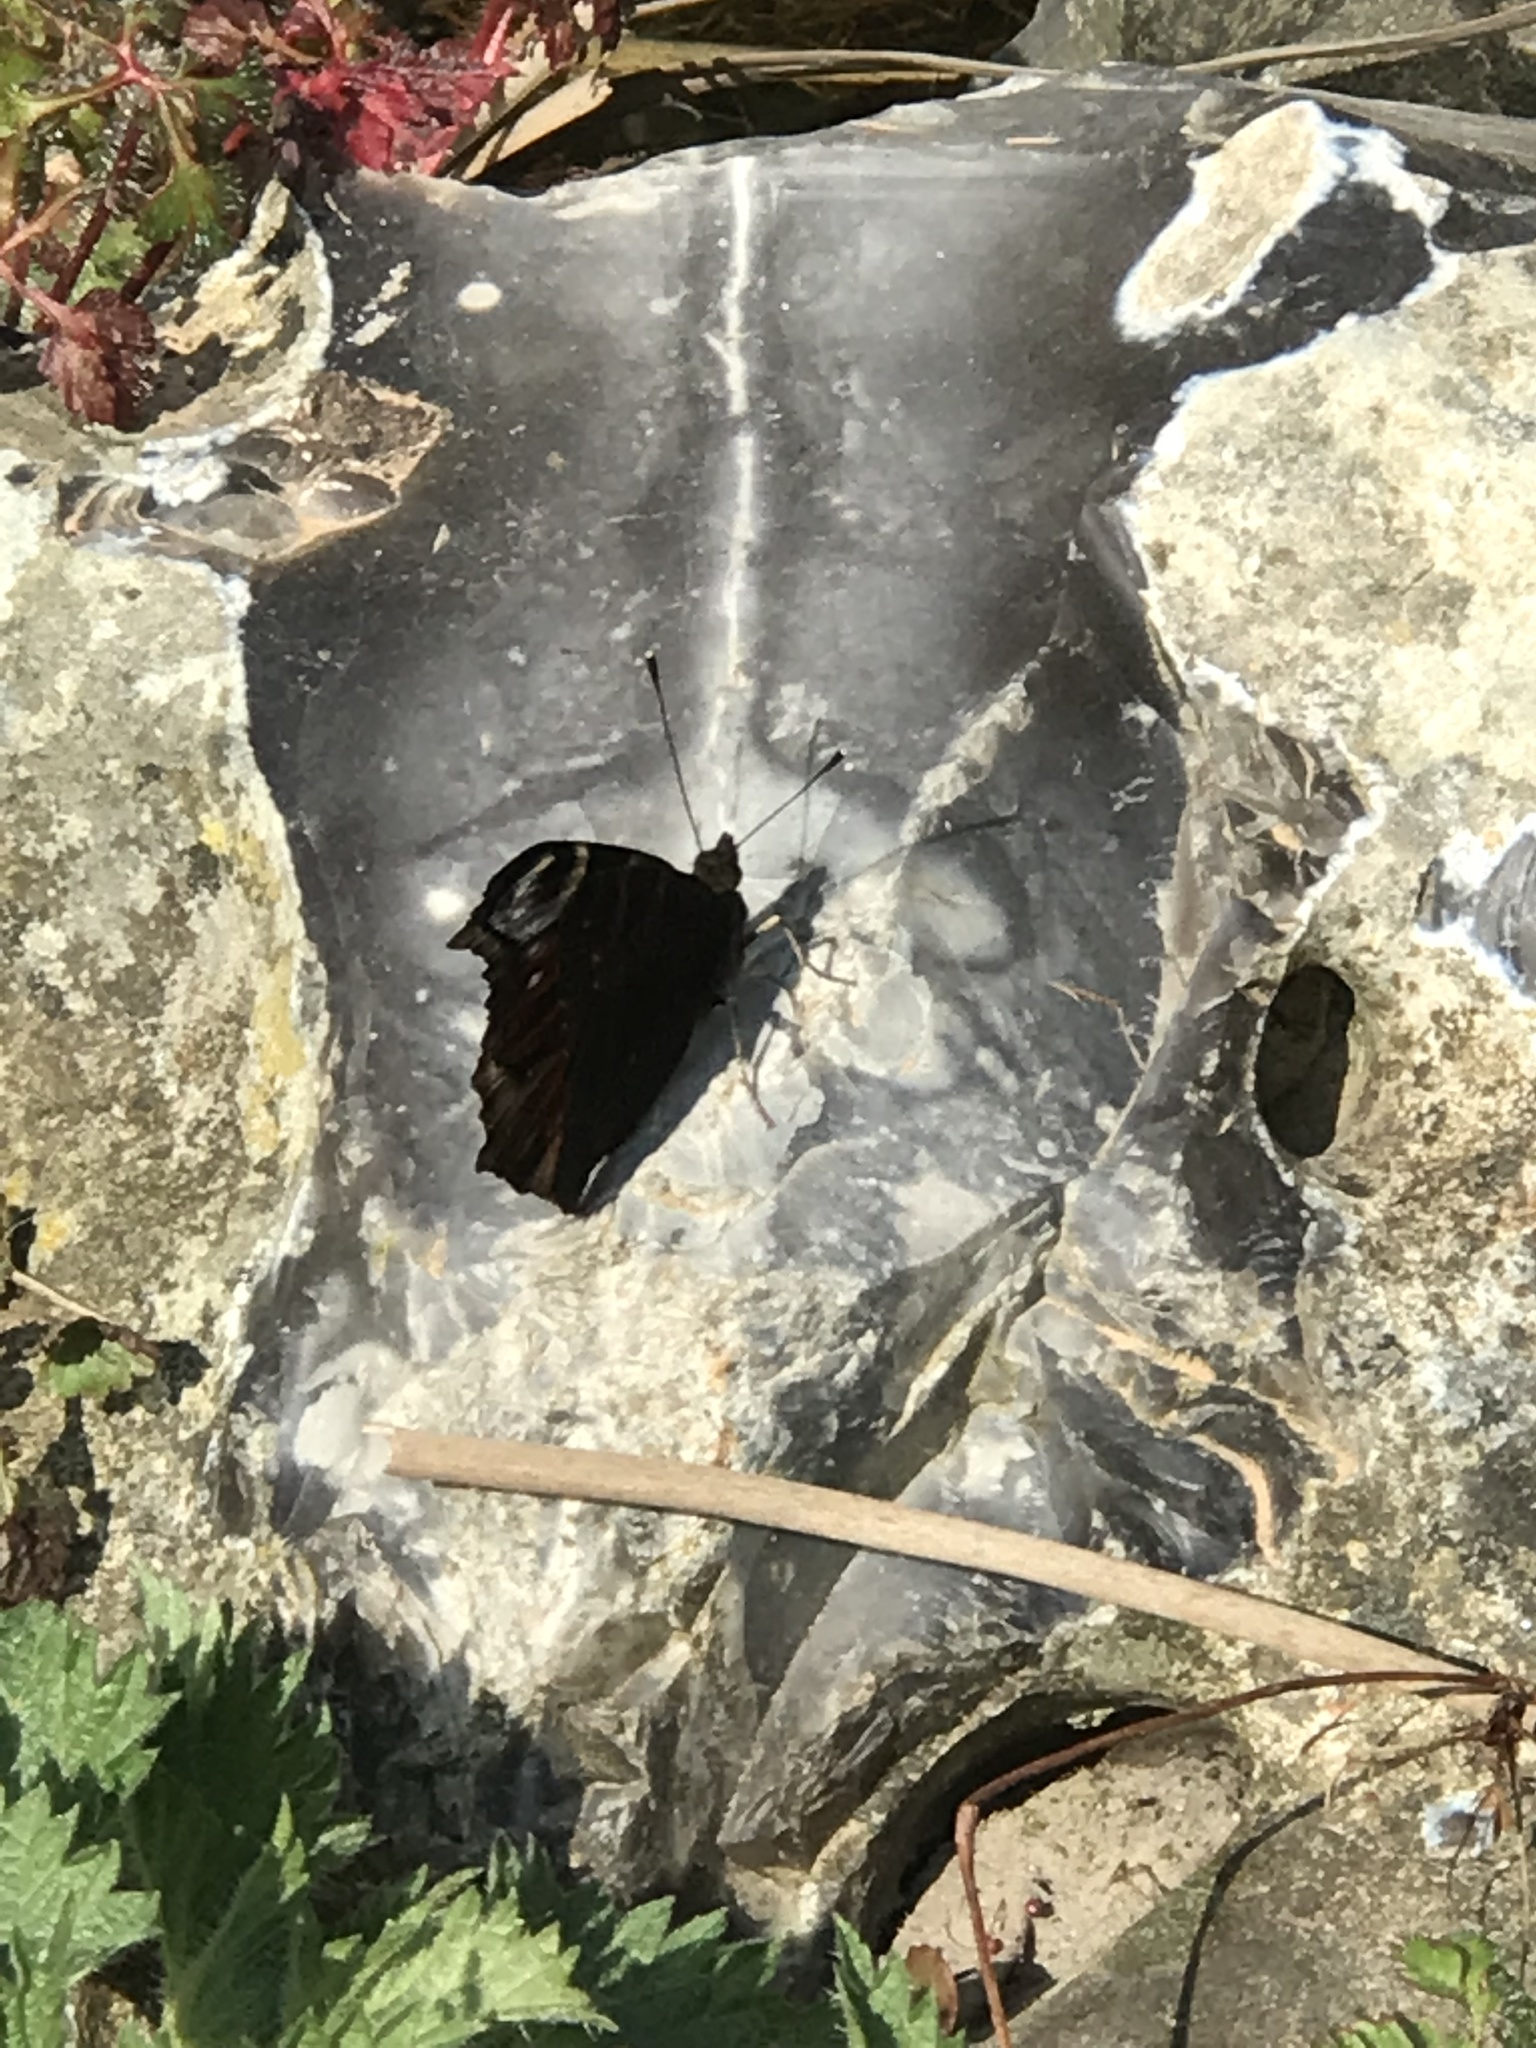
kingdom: Animalia
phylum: Arthropoda
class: Insecta
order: Lepidoptera
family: Nymphalidae
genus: Aglais
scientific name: Aglais io
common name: Peacock
